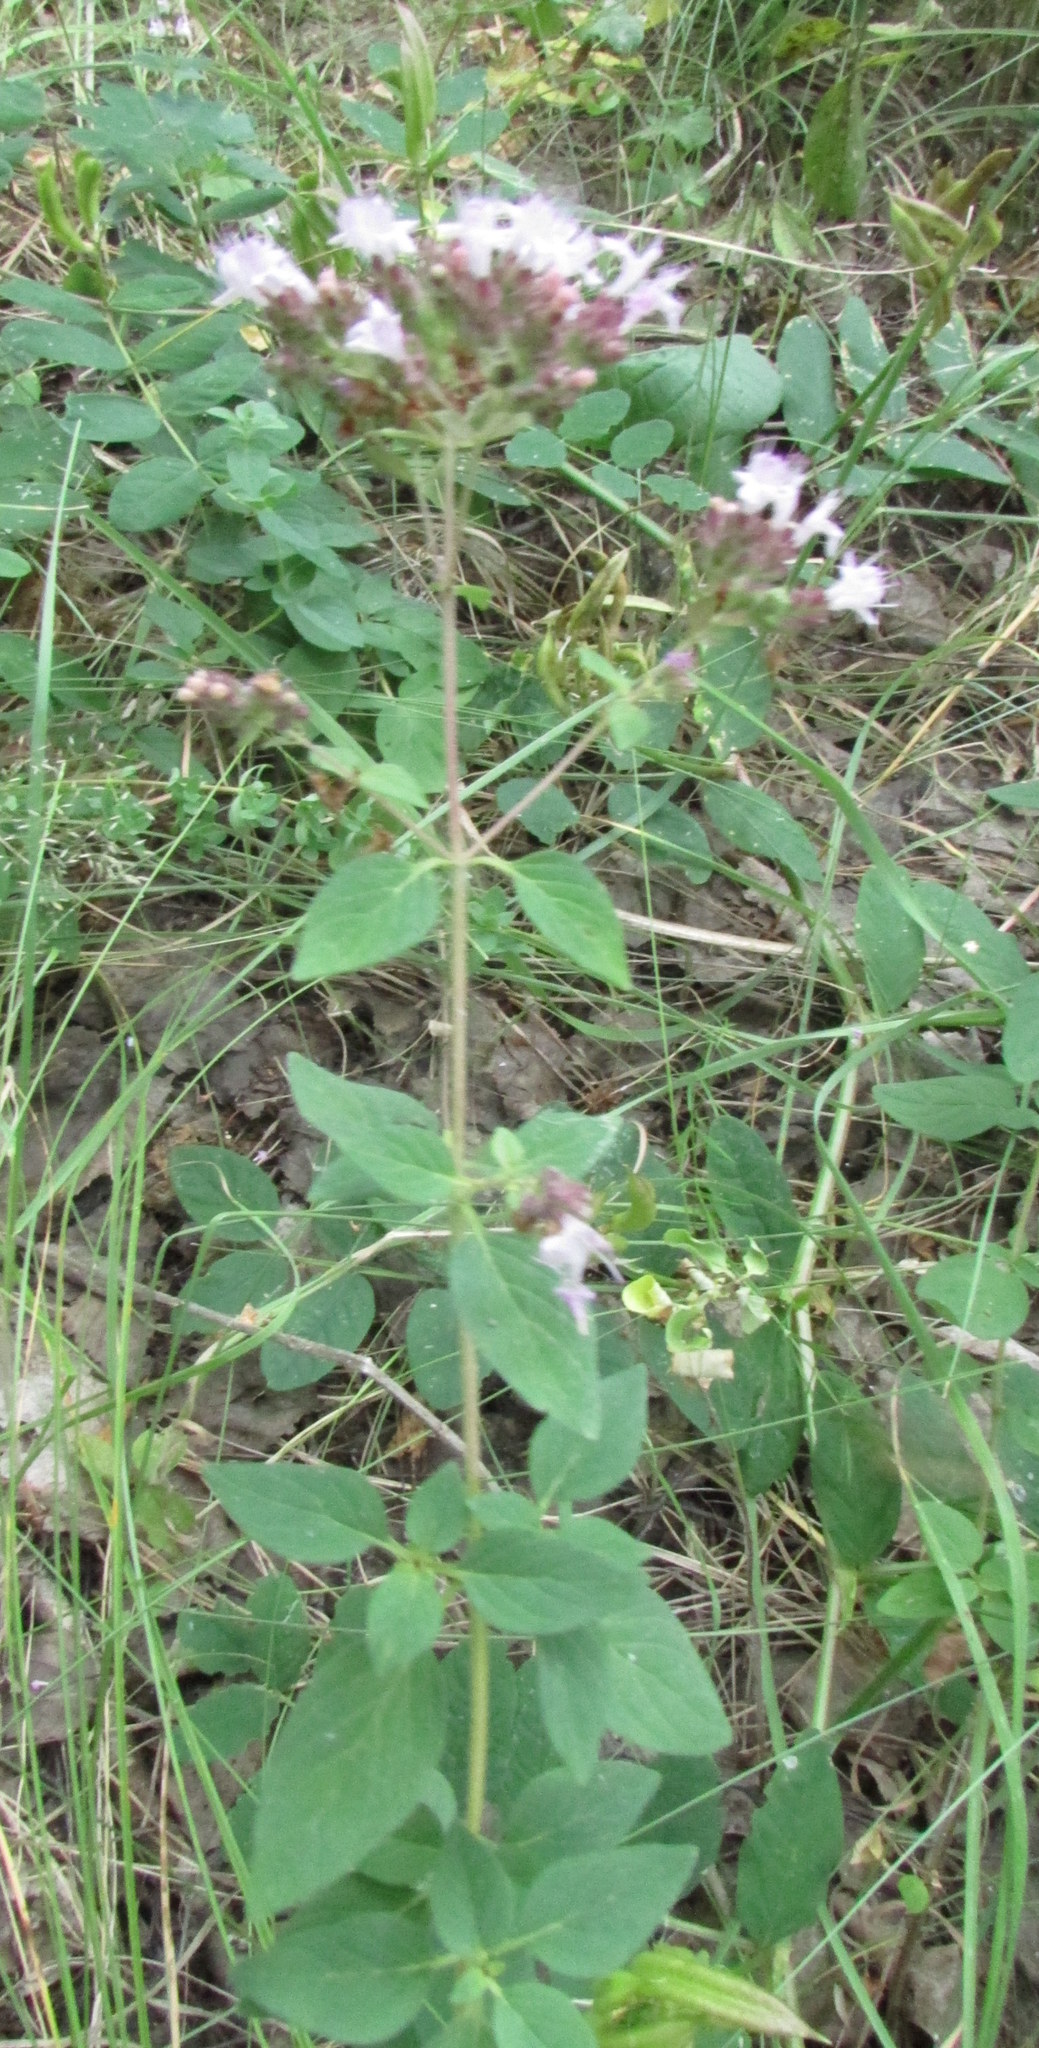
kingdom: Plantae
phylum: Tracheophyta
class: Magnoliopsida
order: Lamiales
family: Lamiaceae
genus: Origanum
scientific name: Origanum vulgare
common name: Wild marjoram
